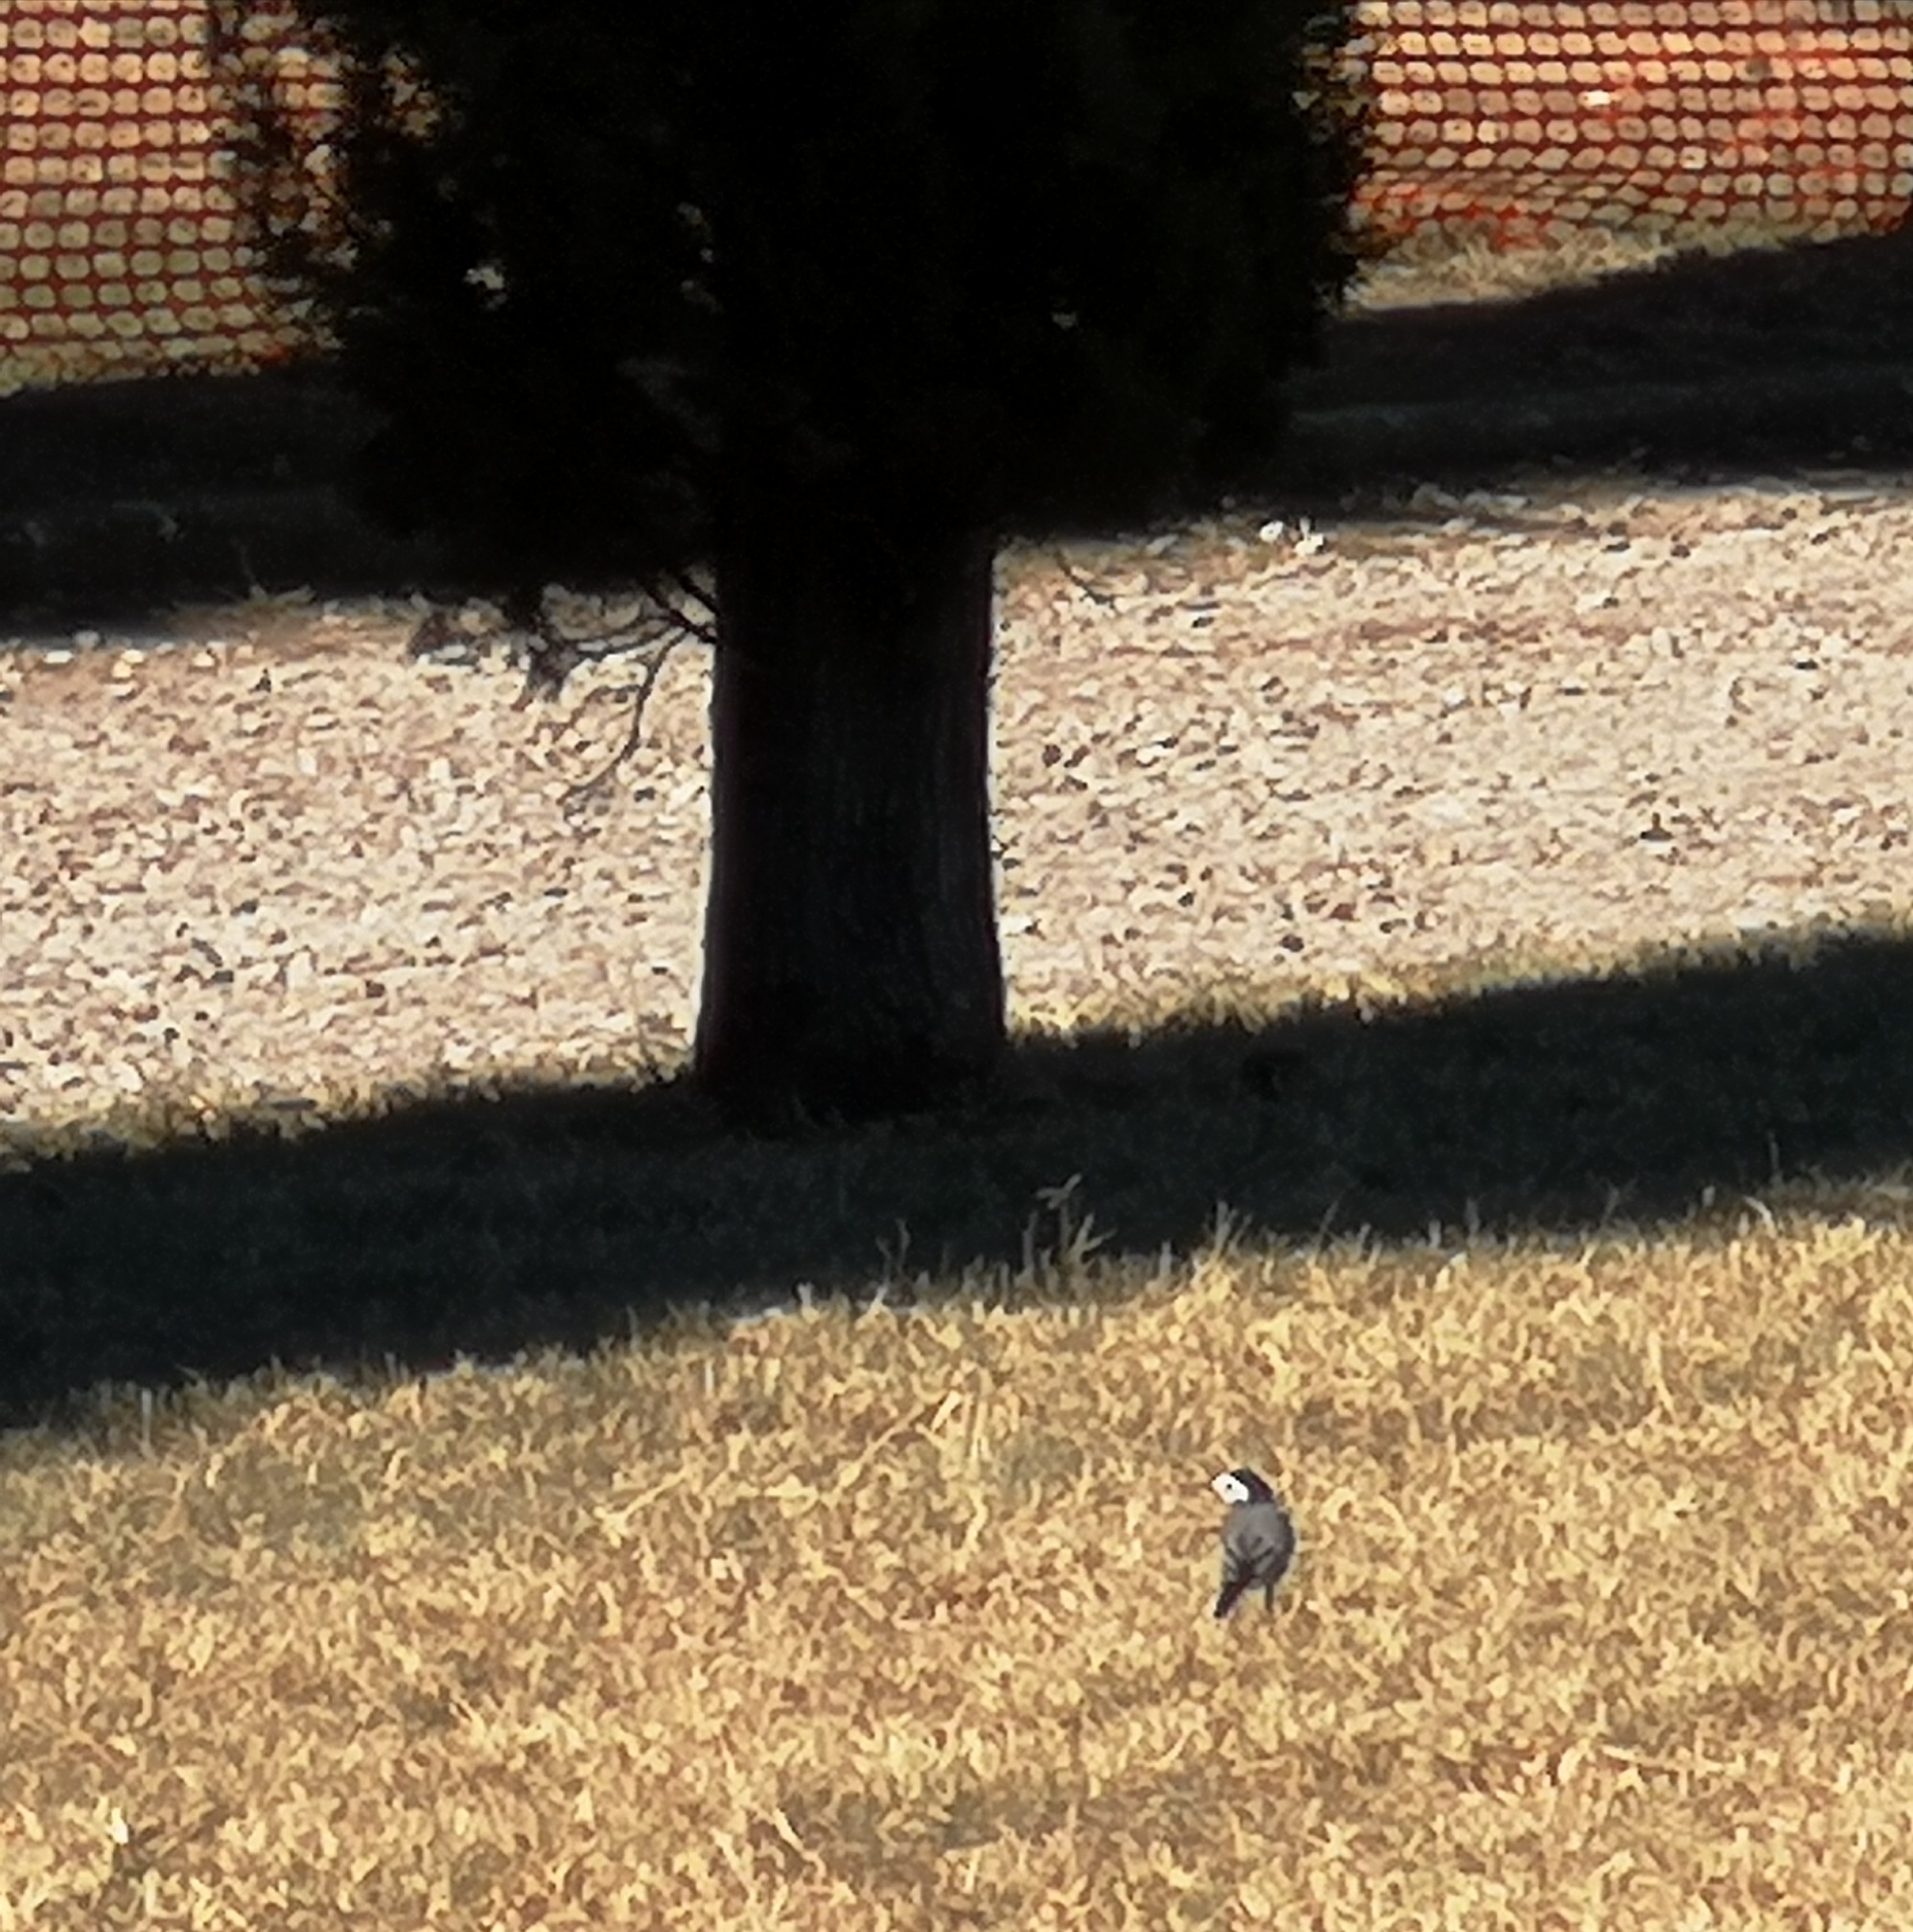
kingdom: Animalia
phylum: Chordata
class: Aves
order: Passeriformes
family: Motacillidae
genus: Motacilla
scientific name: Motacilla alba
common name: White wagtail
